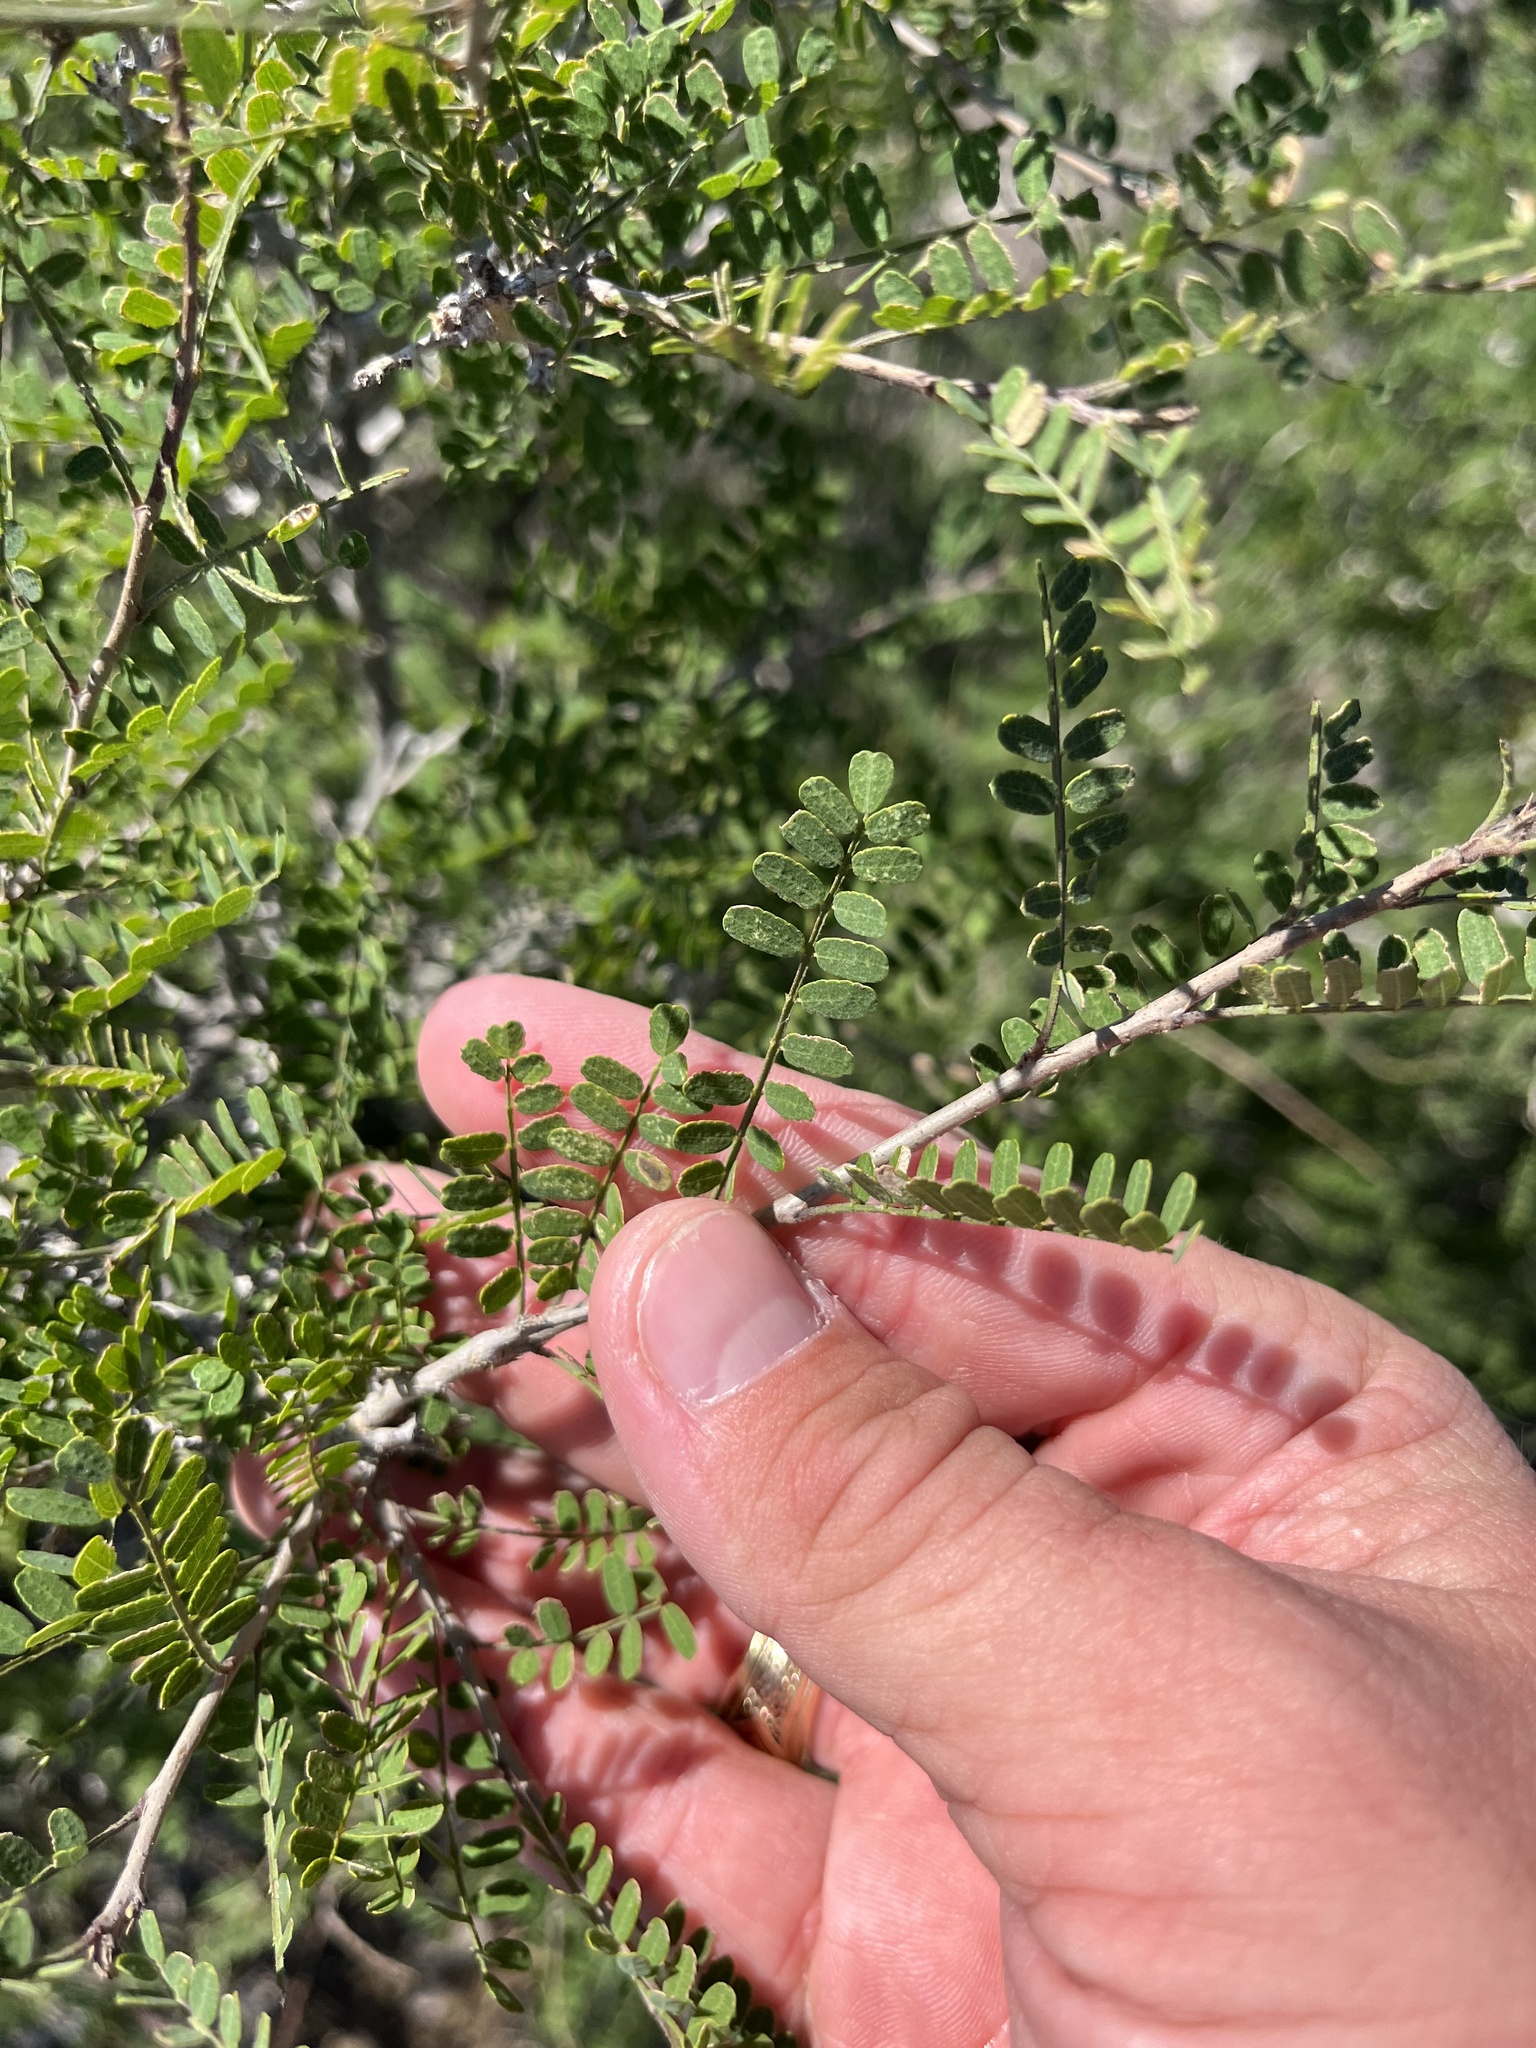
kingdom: Plantae
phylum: Tracheophyta
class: Magnoliopsida
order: Fabales
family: Fabaceae
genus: Eysenhardtia
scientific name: Eysenhardtia texana
